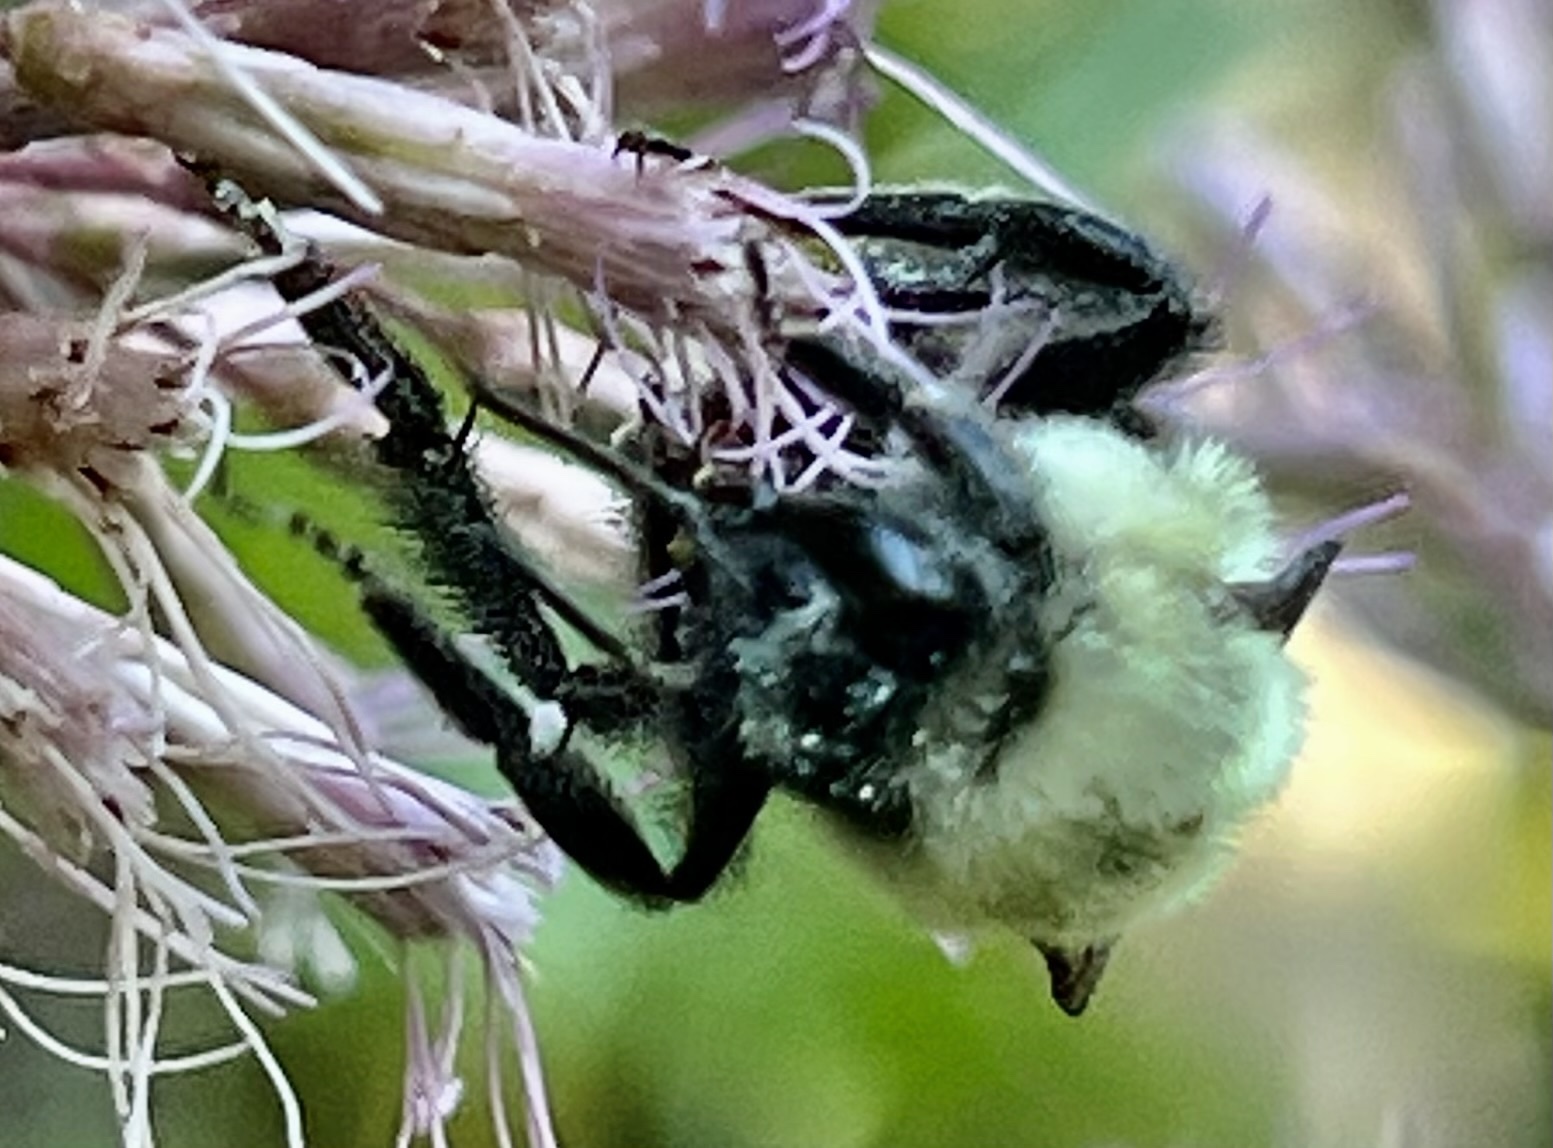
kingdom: Animalia
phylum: Arthropoda
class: Insecta
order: Hymenoptera
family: Apidae
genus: Bombus
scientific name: Bombus impatiens
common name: Common eastern bumble bee
